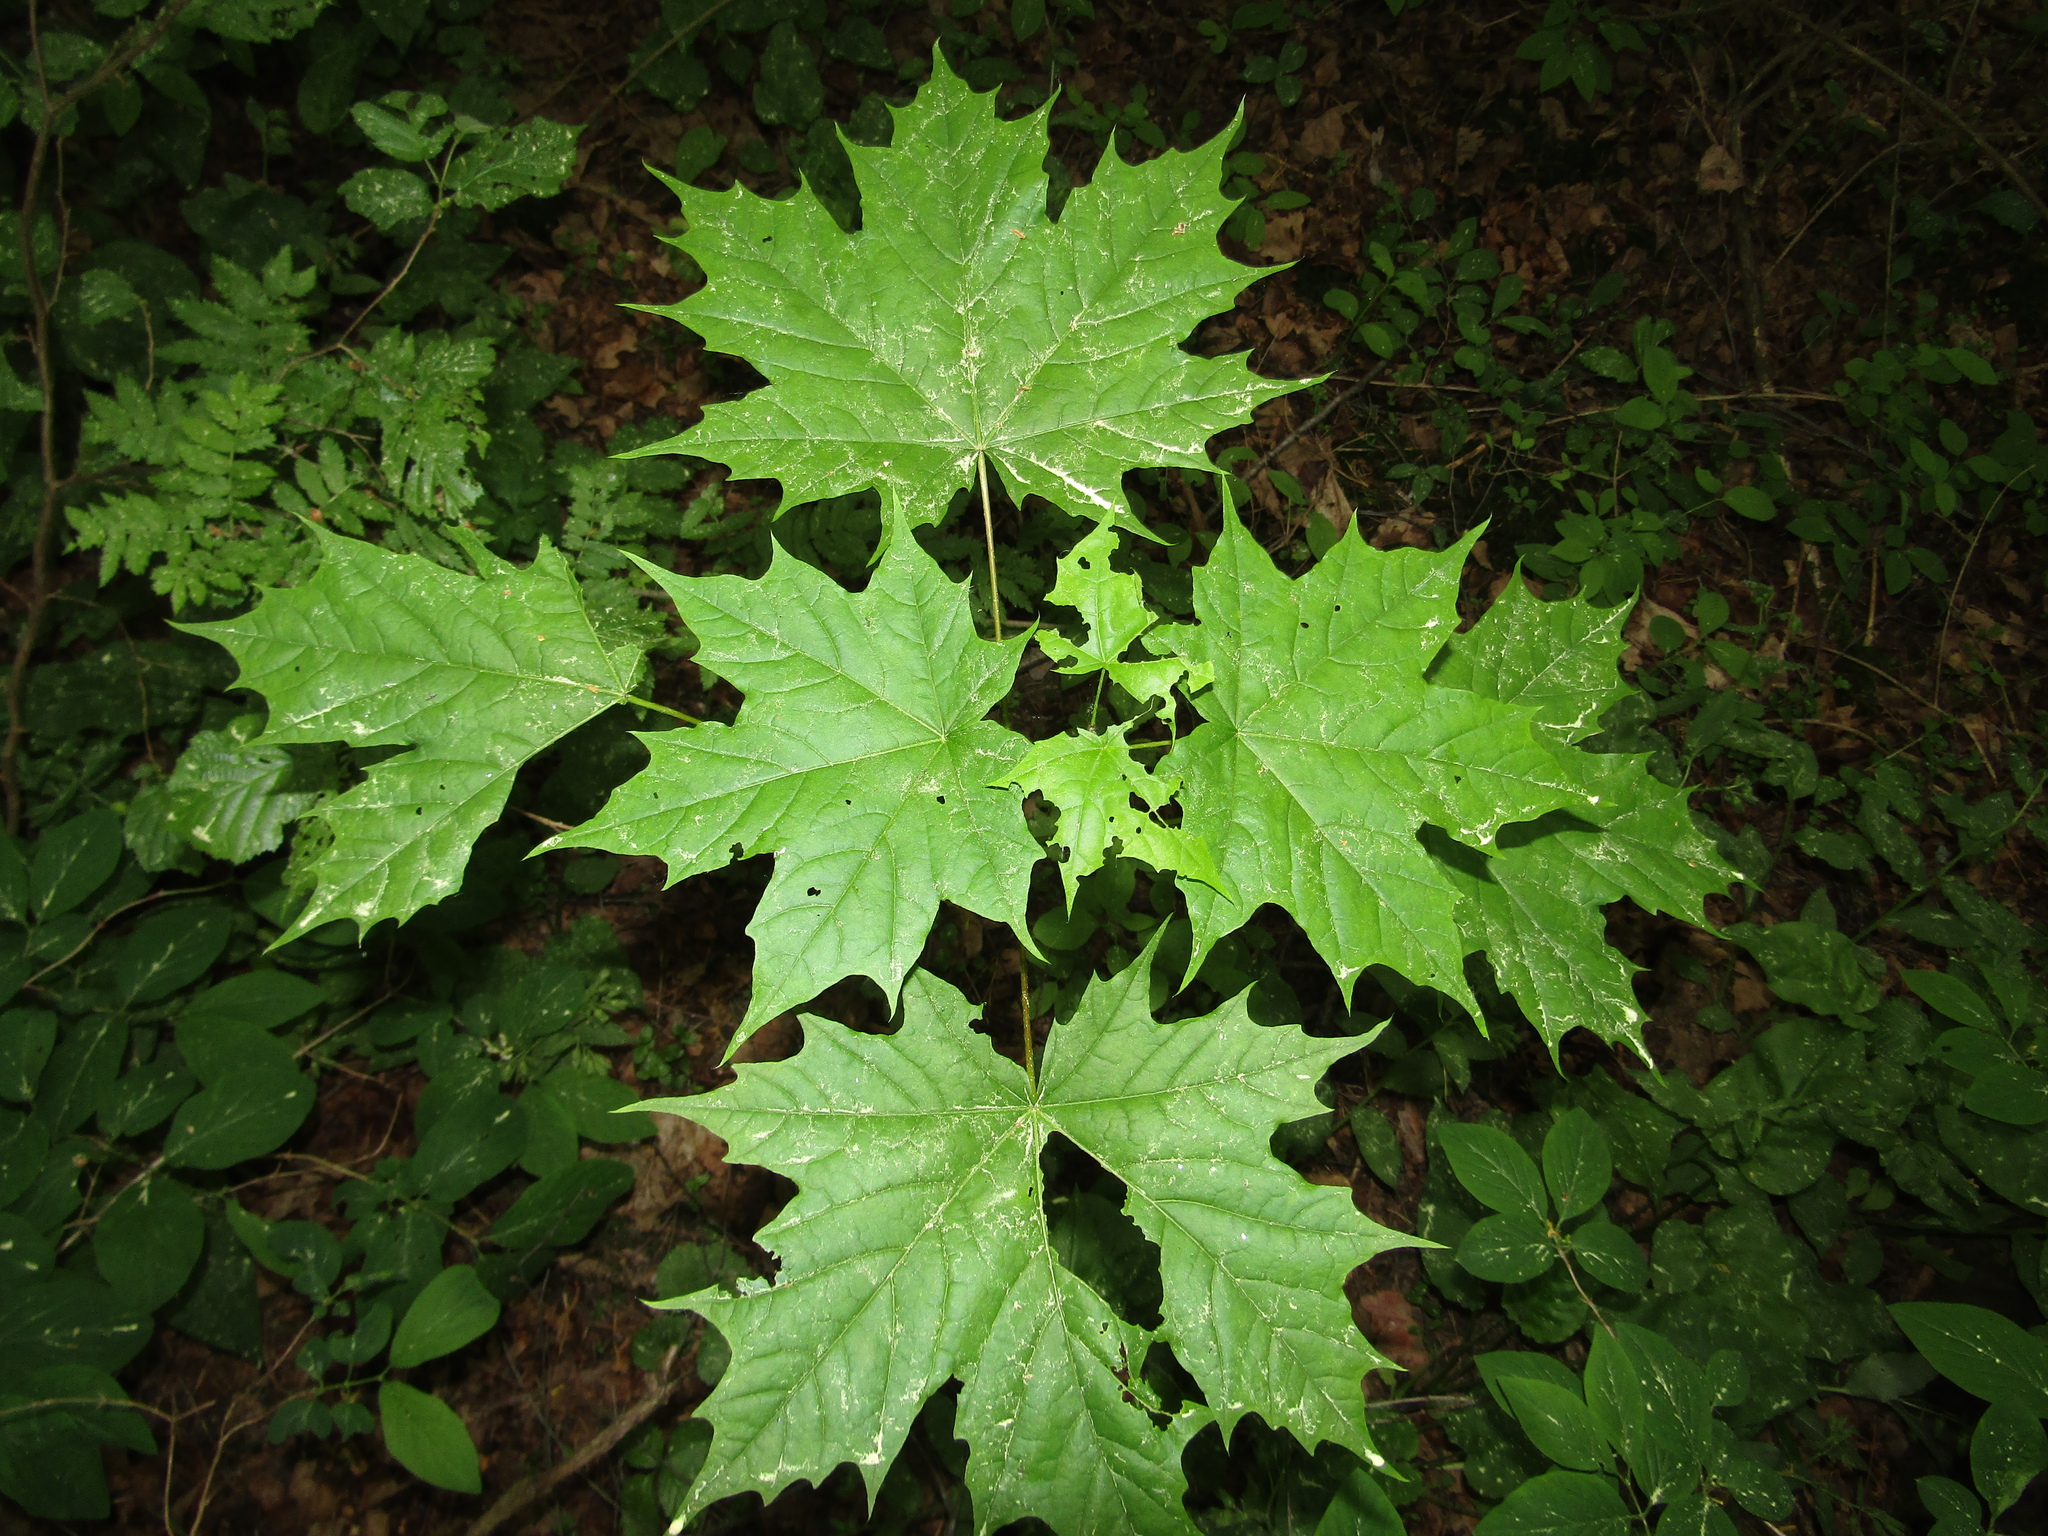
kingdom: Plantae
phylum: Tracheophyta
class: Magnoliopsida
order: Sapindales
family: Sapindaceae
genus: Acer
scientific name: Acer platanoides
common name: Norway maple
